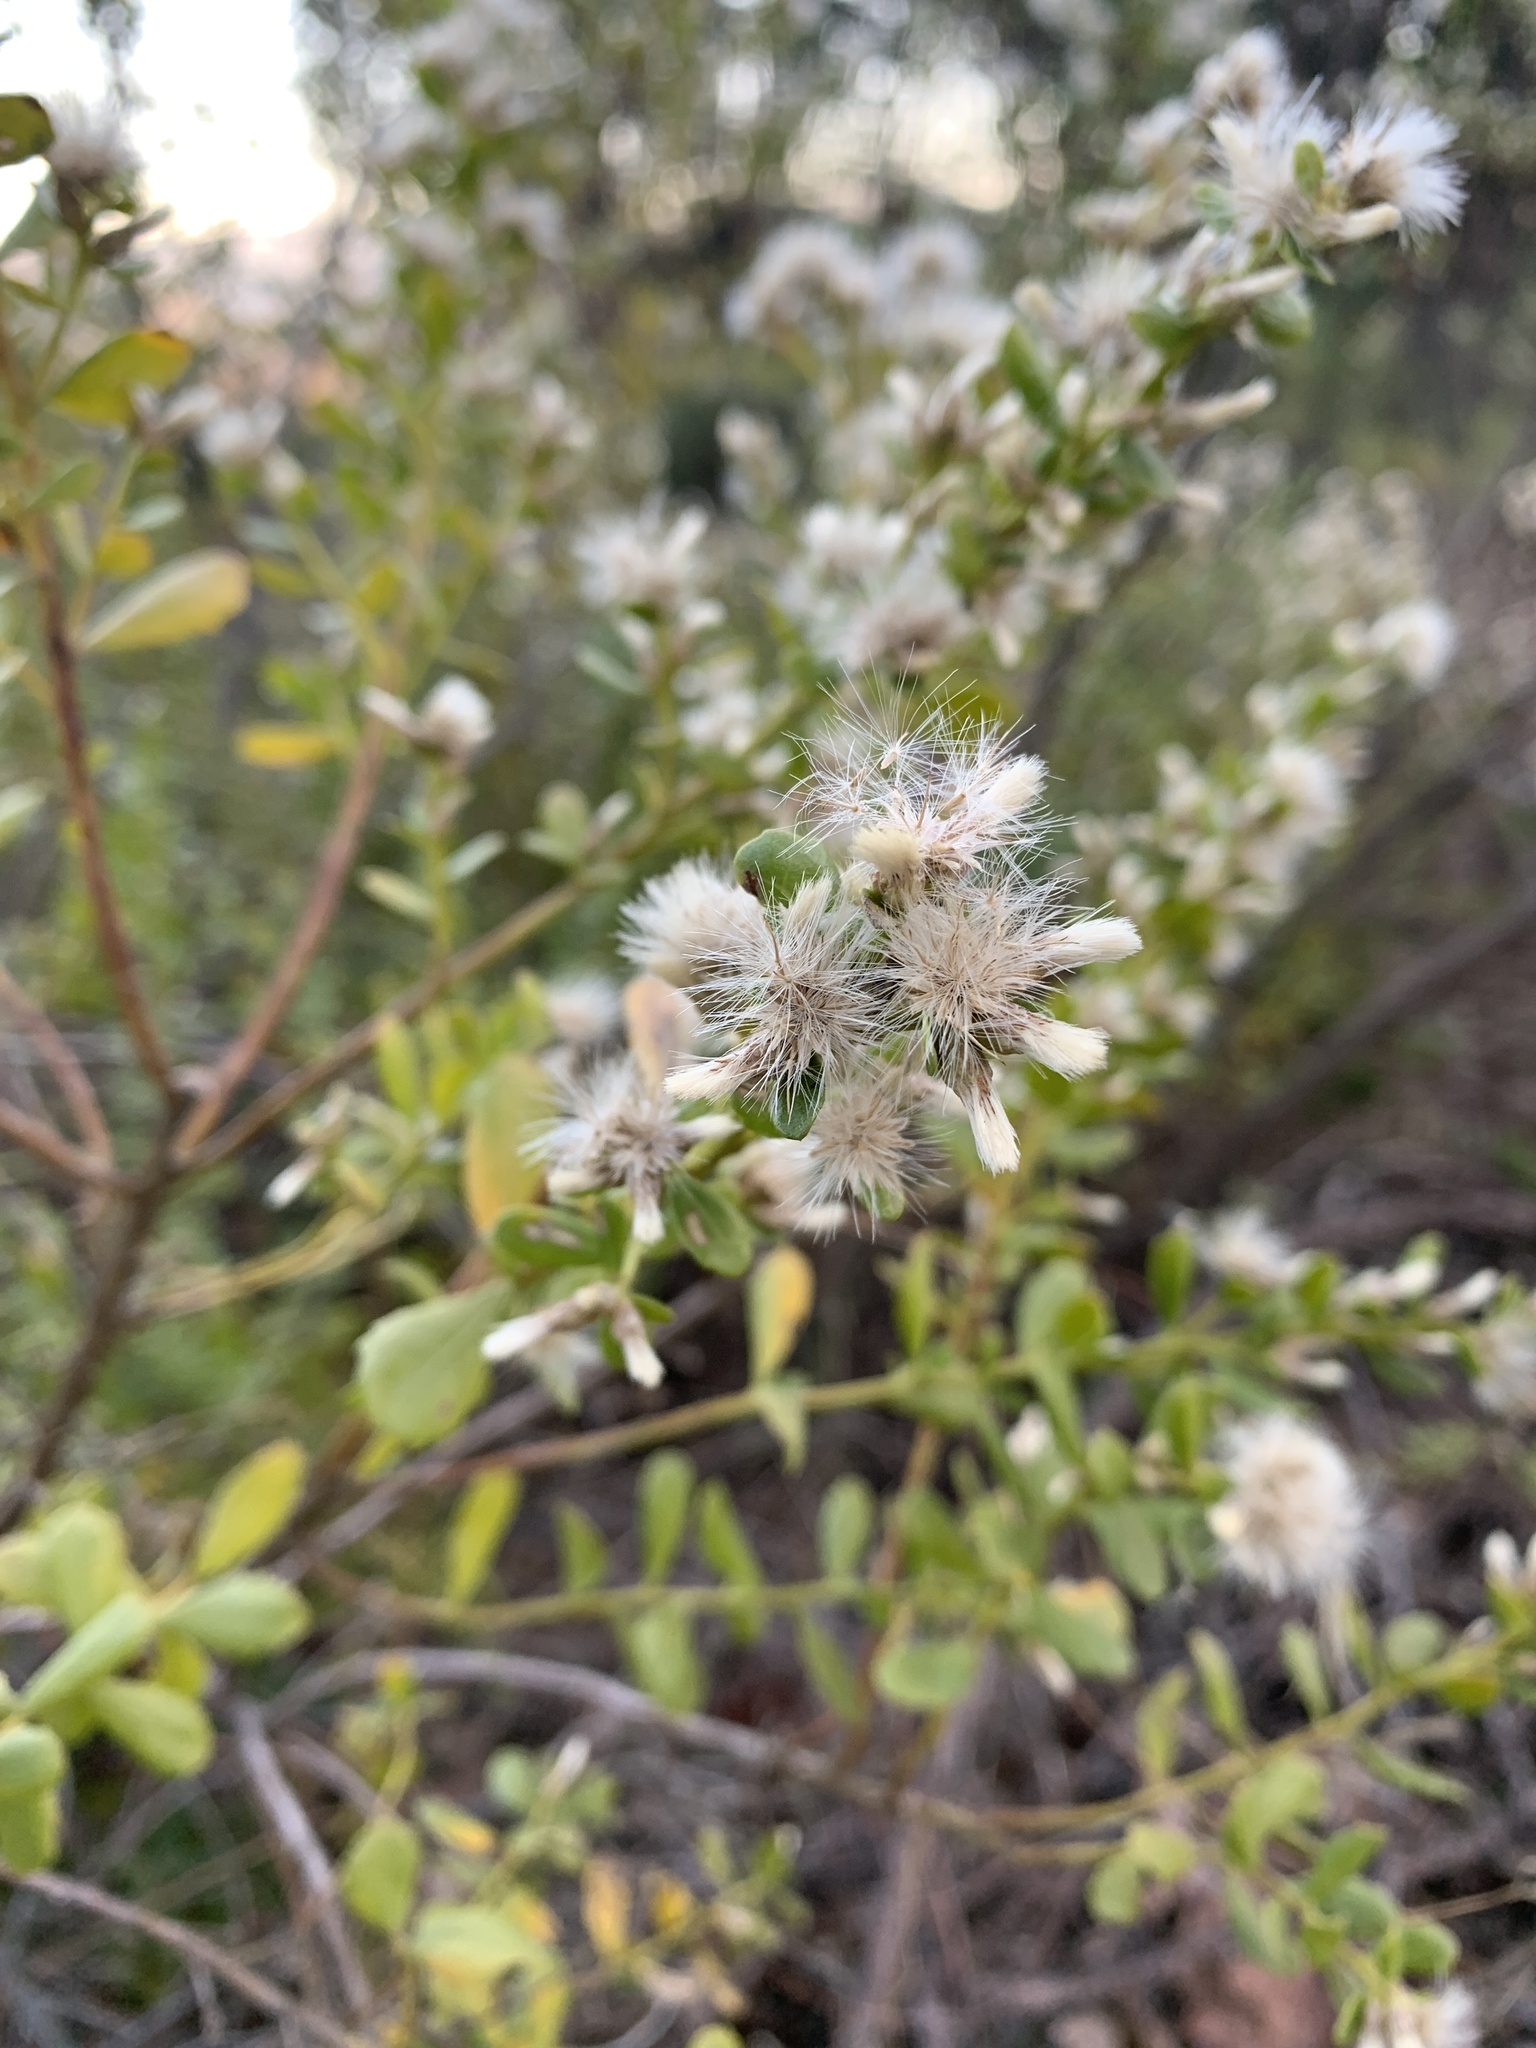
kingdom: Plantae
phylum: Tracheophyta
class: Magnoliopsida
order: Asterales
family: Asteraceae
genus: Baccharis
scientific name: Baccharis pilularis
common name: Coyotebrush
